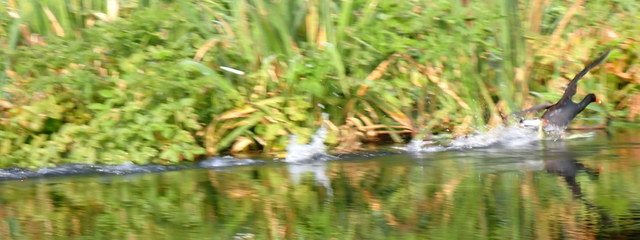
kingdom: Animalia
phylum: Chordata
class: Aves
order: Gruiformes
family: Rallidae
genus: Gallinula
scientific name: Gallinula chloropus
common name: Common moorhen
